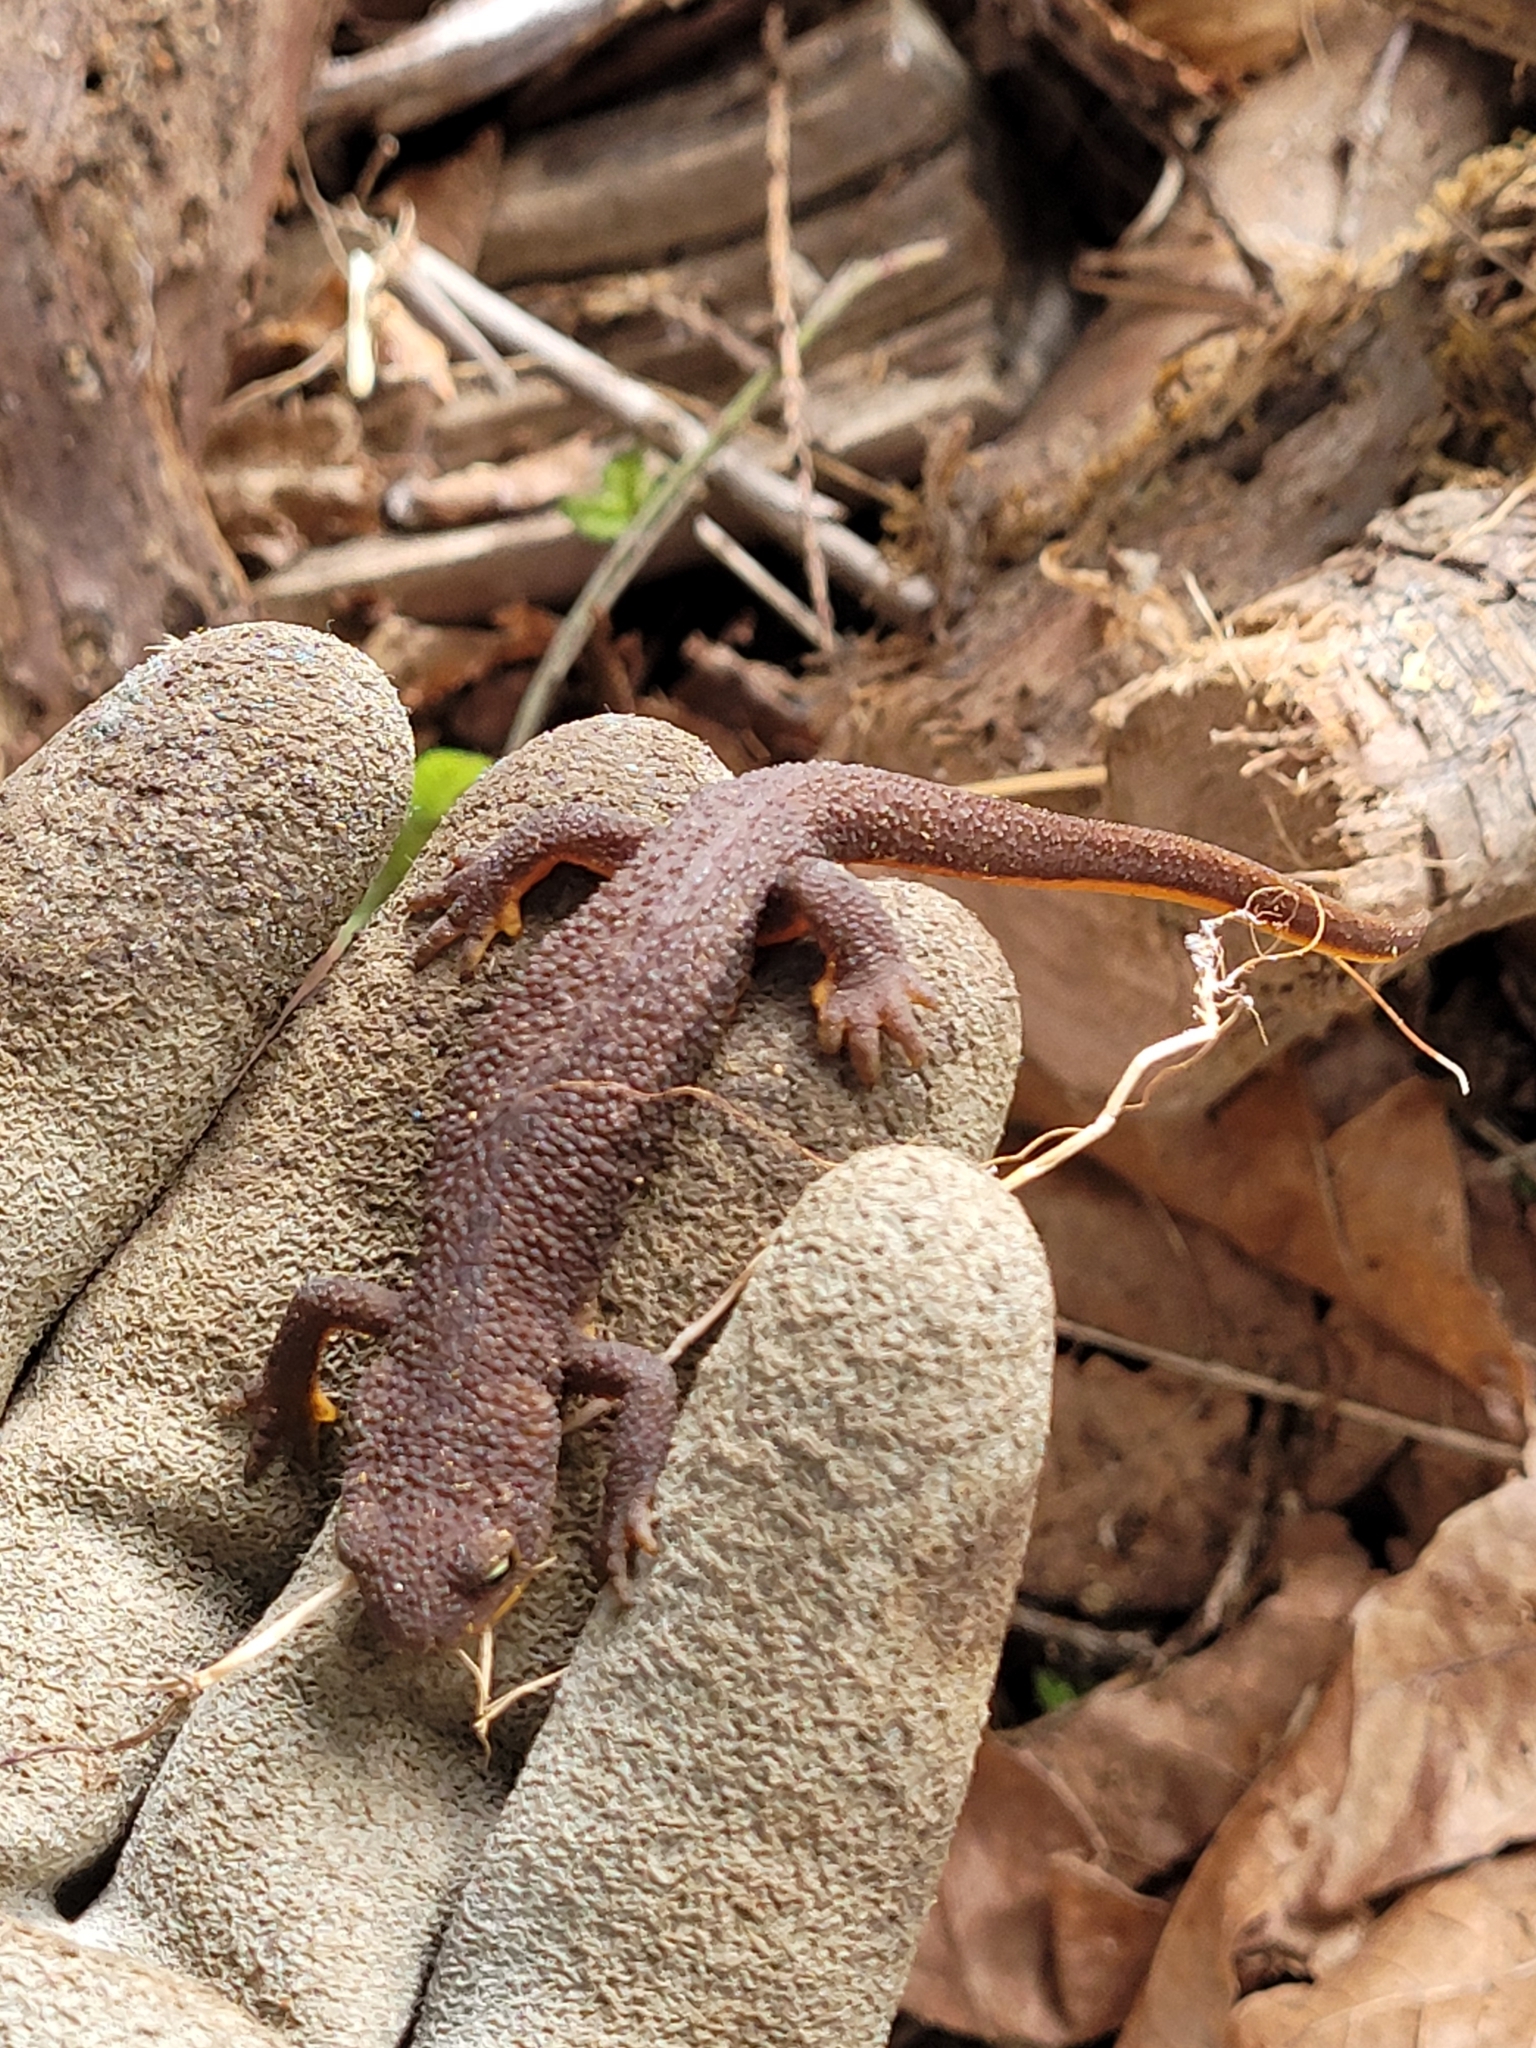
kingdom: Animalia
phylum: Chordata
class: Amphibia
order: Caudata
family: Salamandridae
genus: Taricha
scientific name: Taricha granulosa
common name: Roughskin newt
